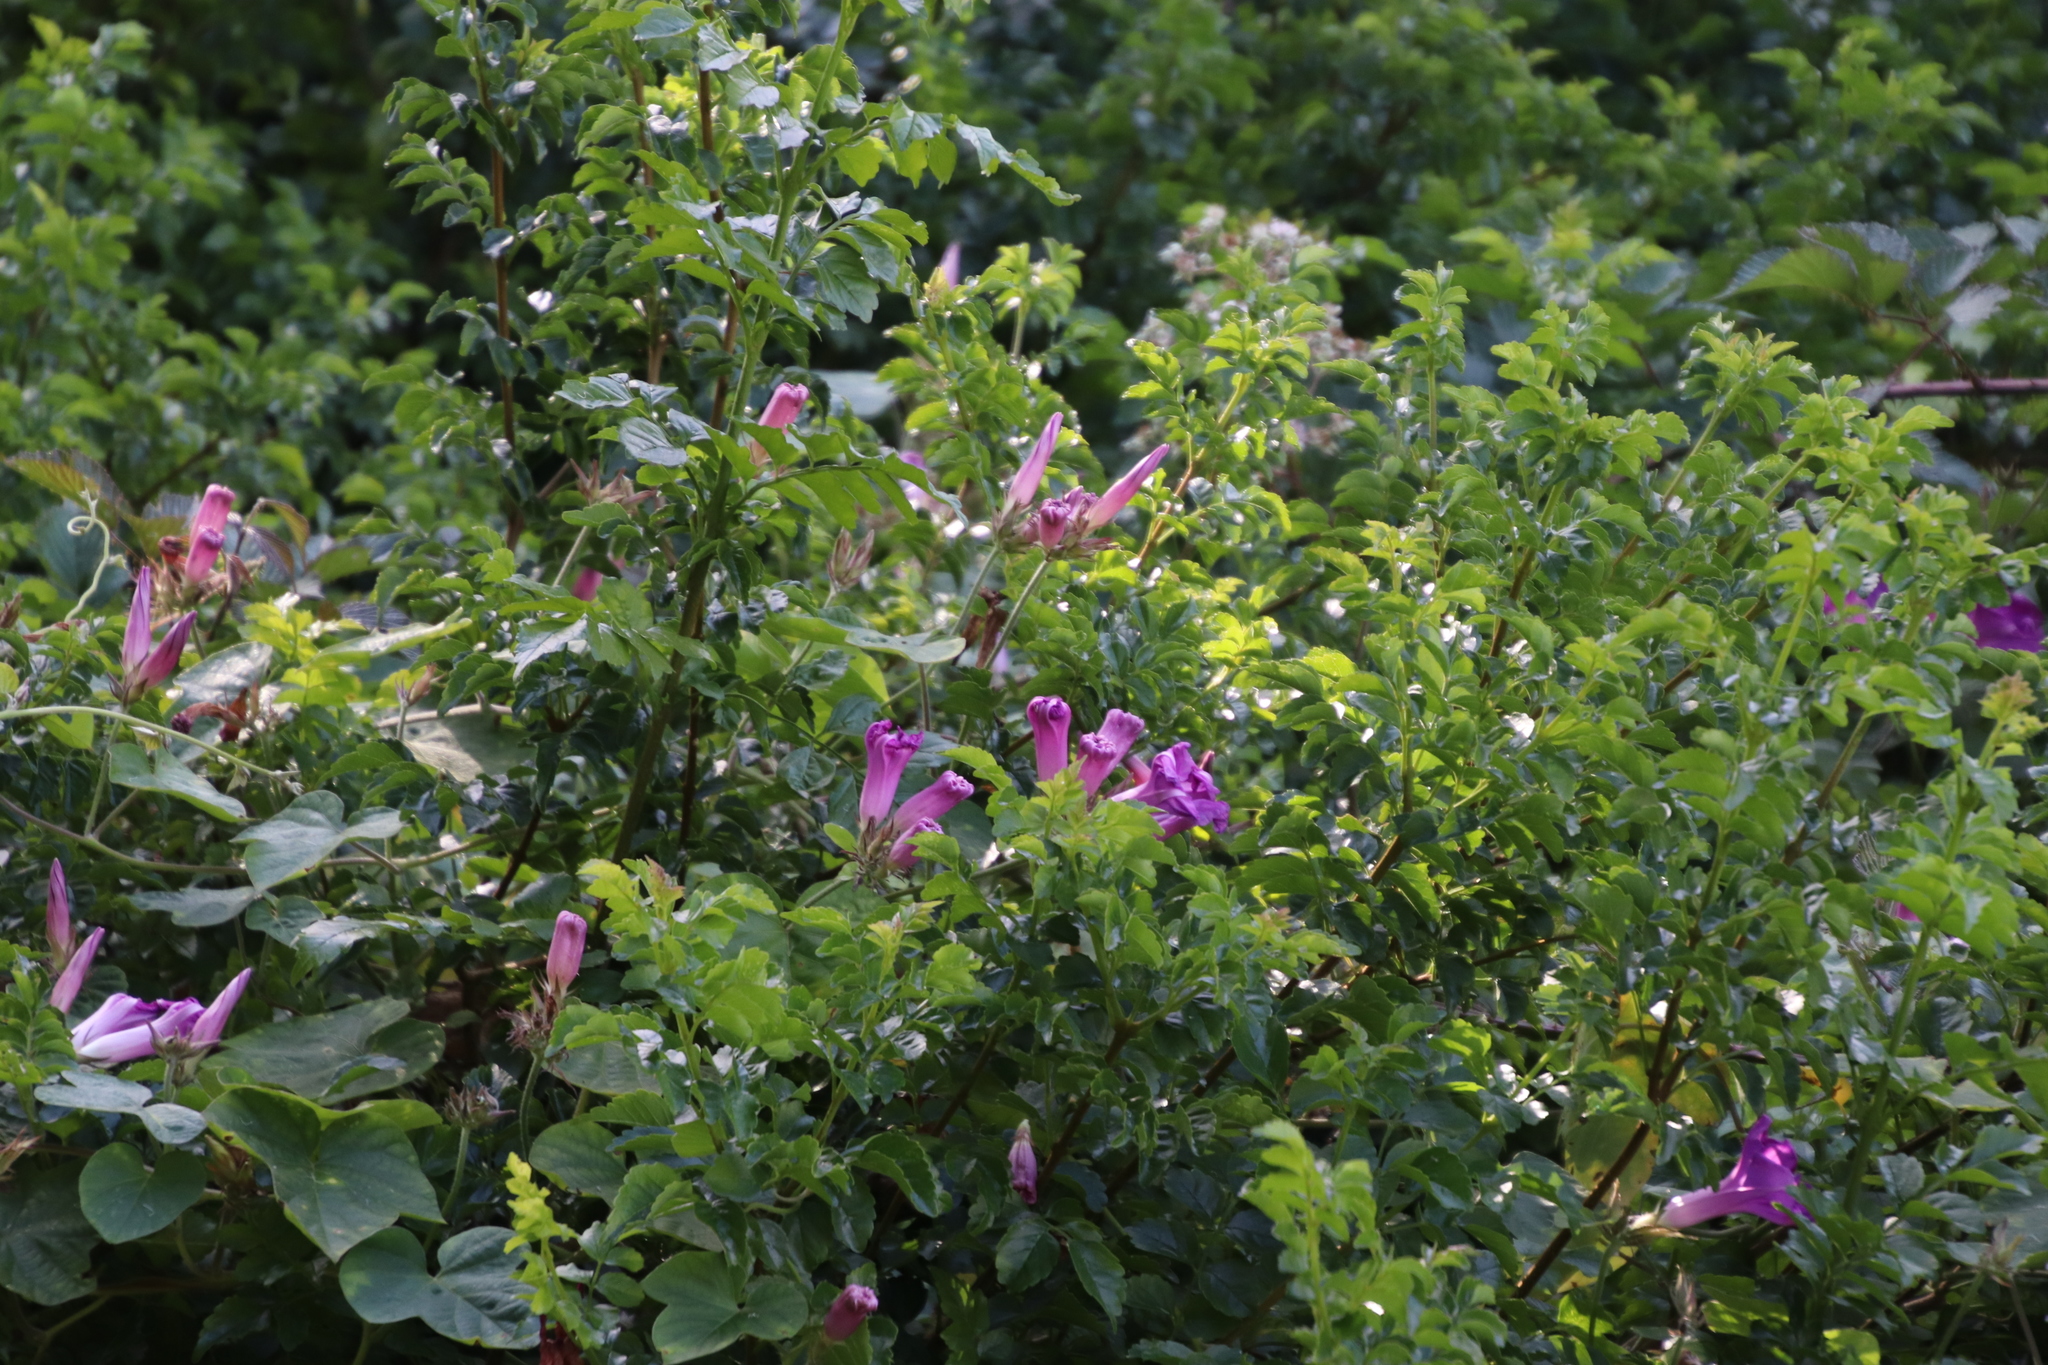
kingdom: Plantae
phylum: Tracheophyta
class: Magnoliopsida
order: Solanales
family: Convolvulaceae
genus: Ipomoea
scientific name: Ipomoea indica
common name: Blue dawnflower
